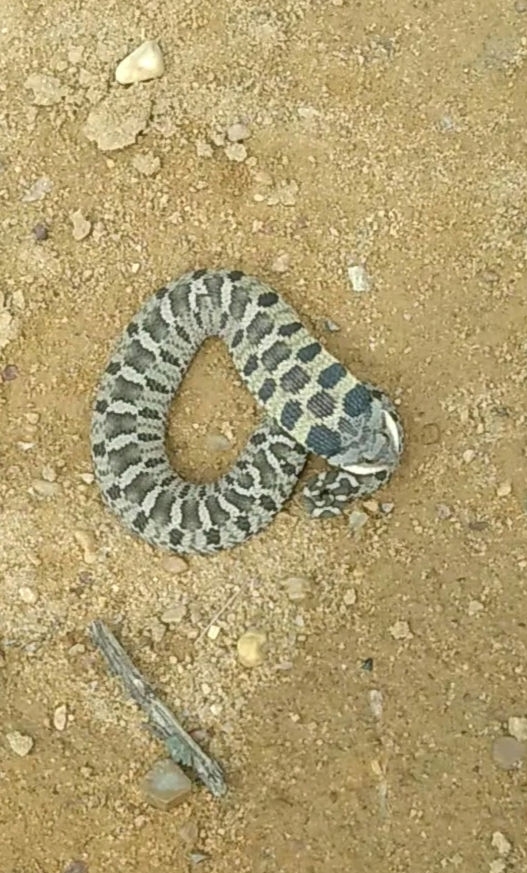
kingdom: Animalia
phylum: Chordata
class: Squamata
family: Colubridae
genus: Heterodon
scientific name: Heterodon platirhinos
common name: Eastern hognose snake
